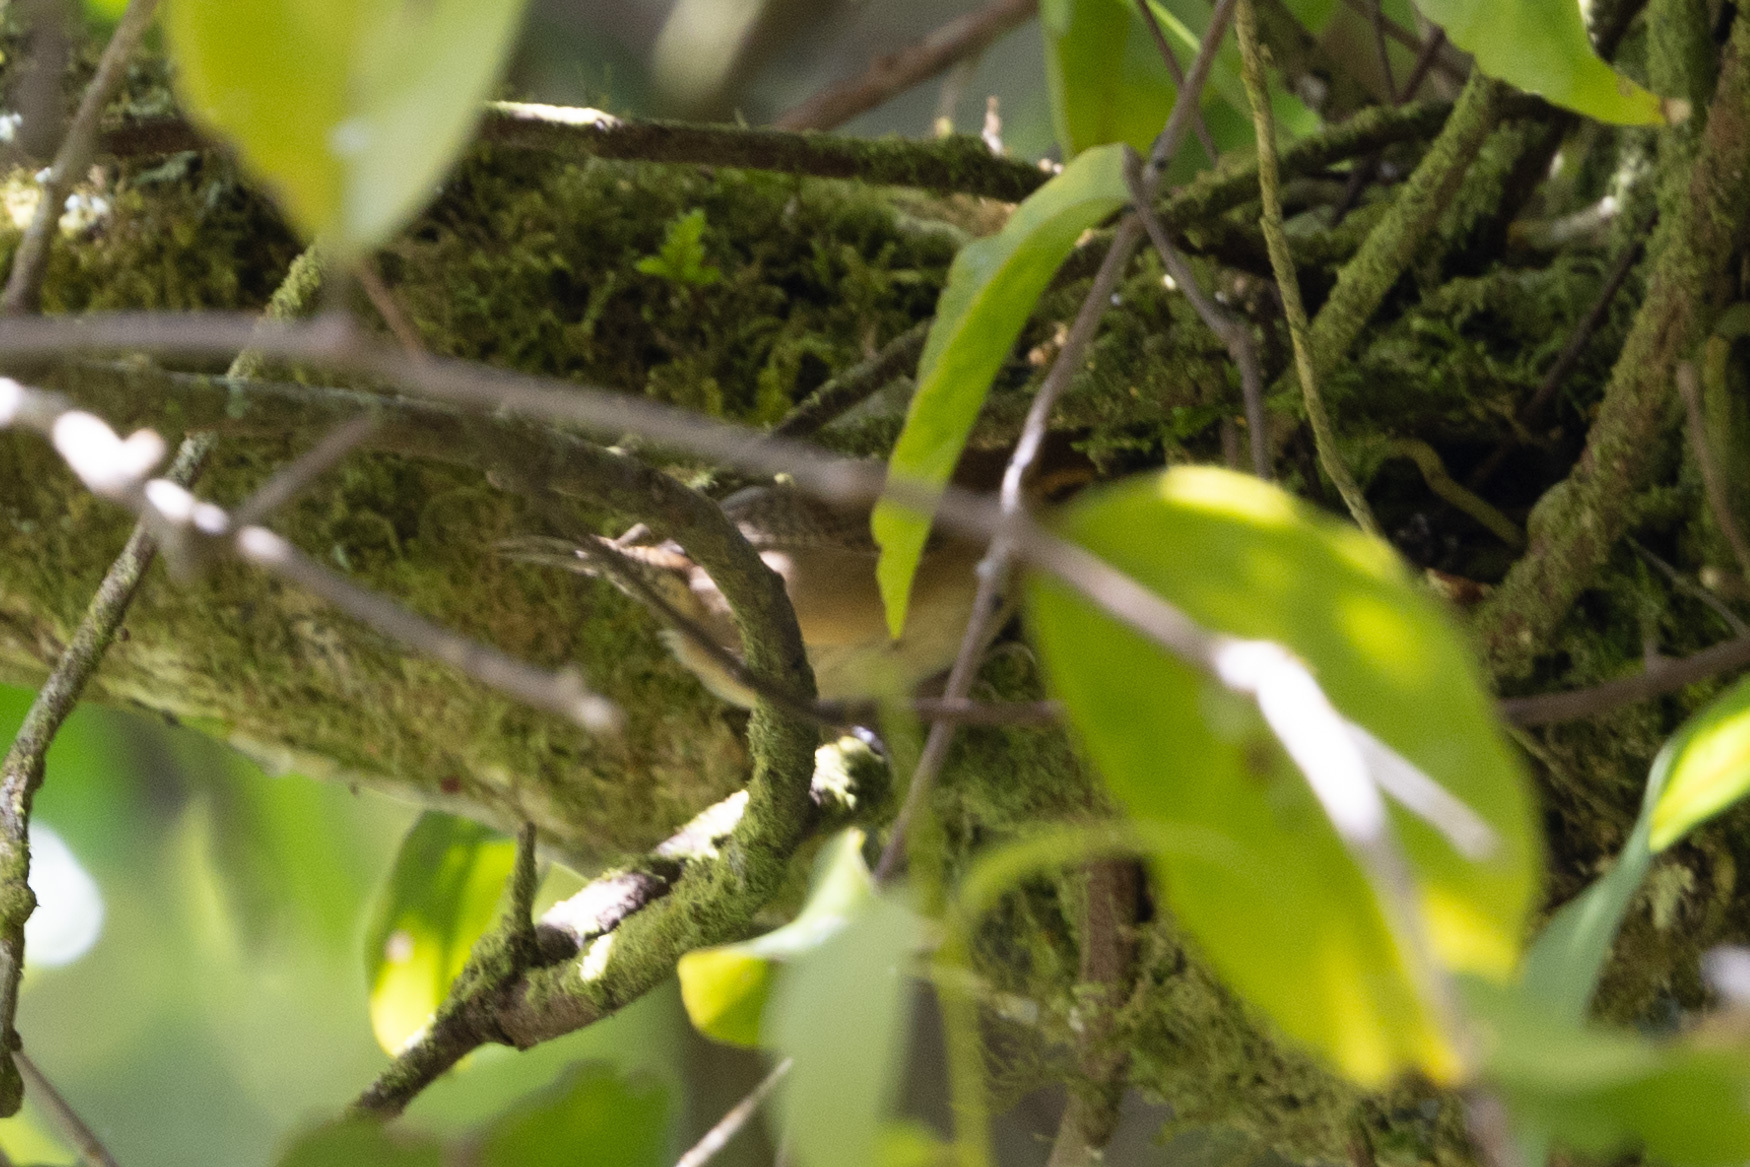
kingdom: Animalia
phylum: Chordata
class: Aves
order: Passeriformes
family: Troglodytidae
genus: Troglodytes
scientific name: Troglodytes ochraceus
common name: Ochraceous wren
